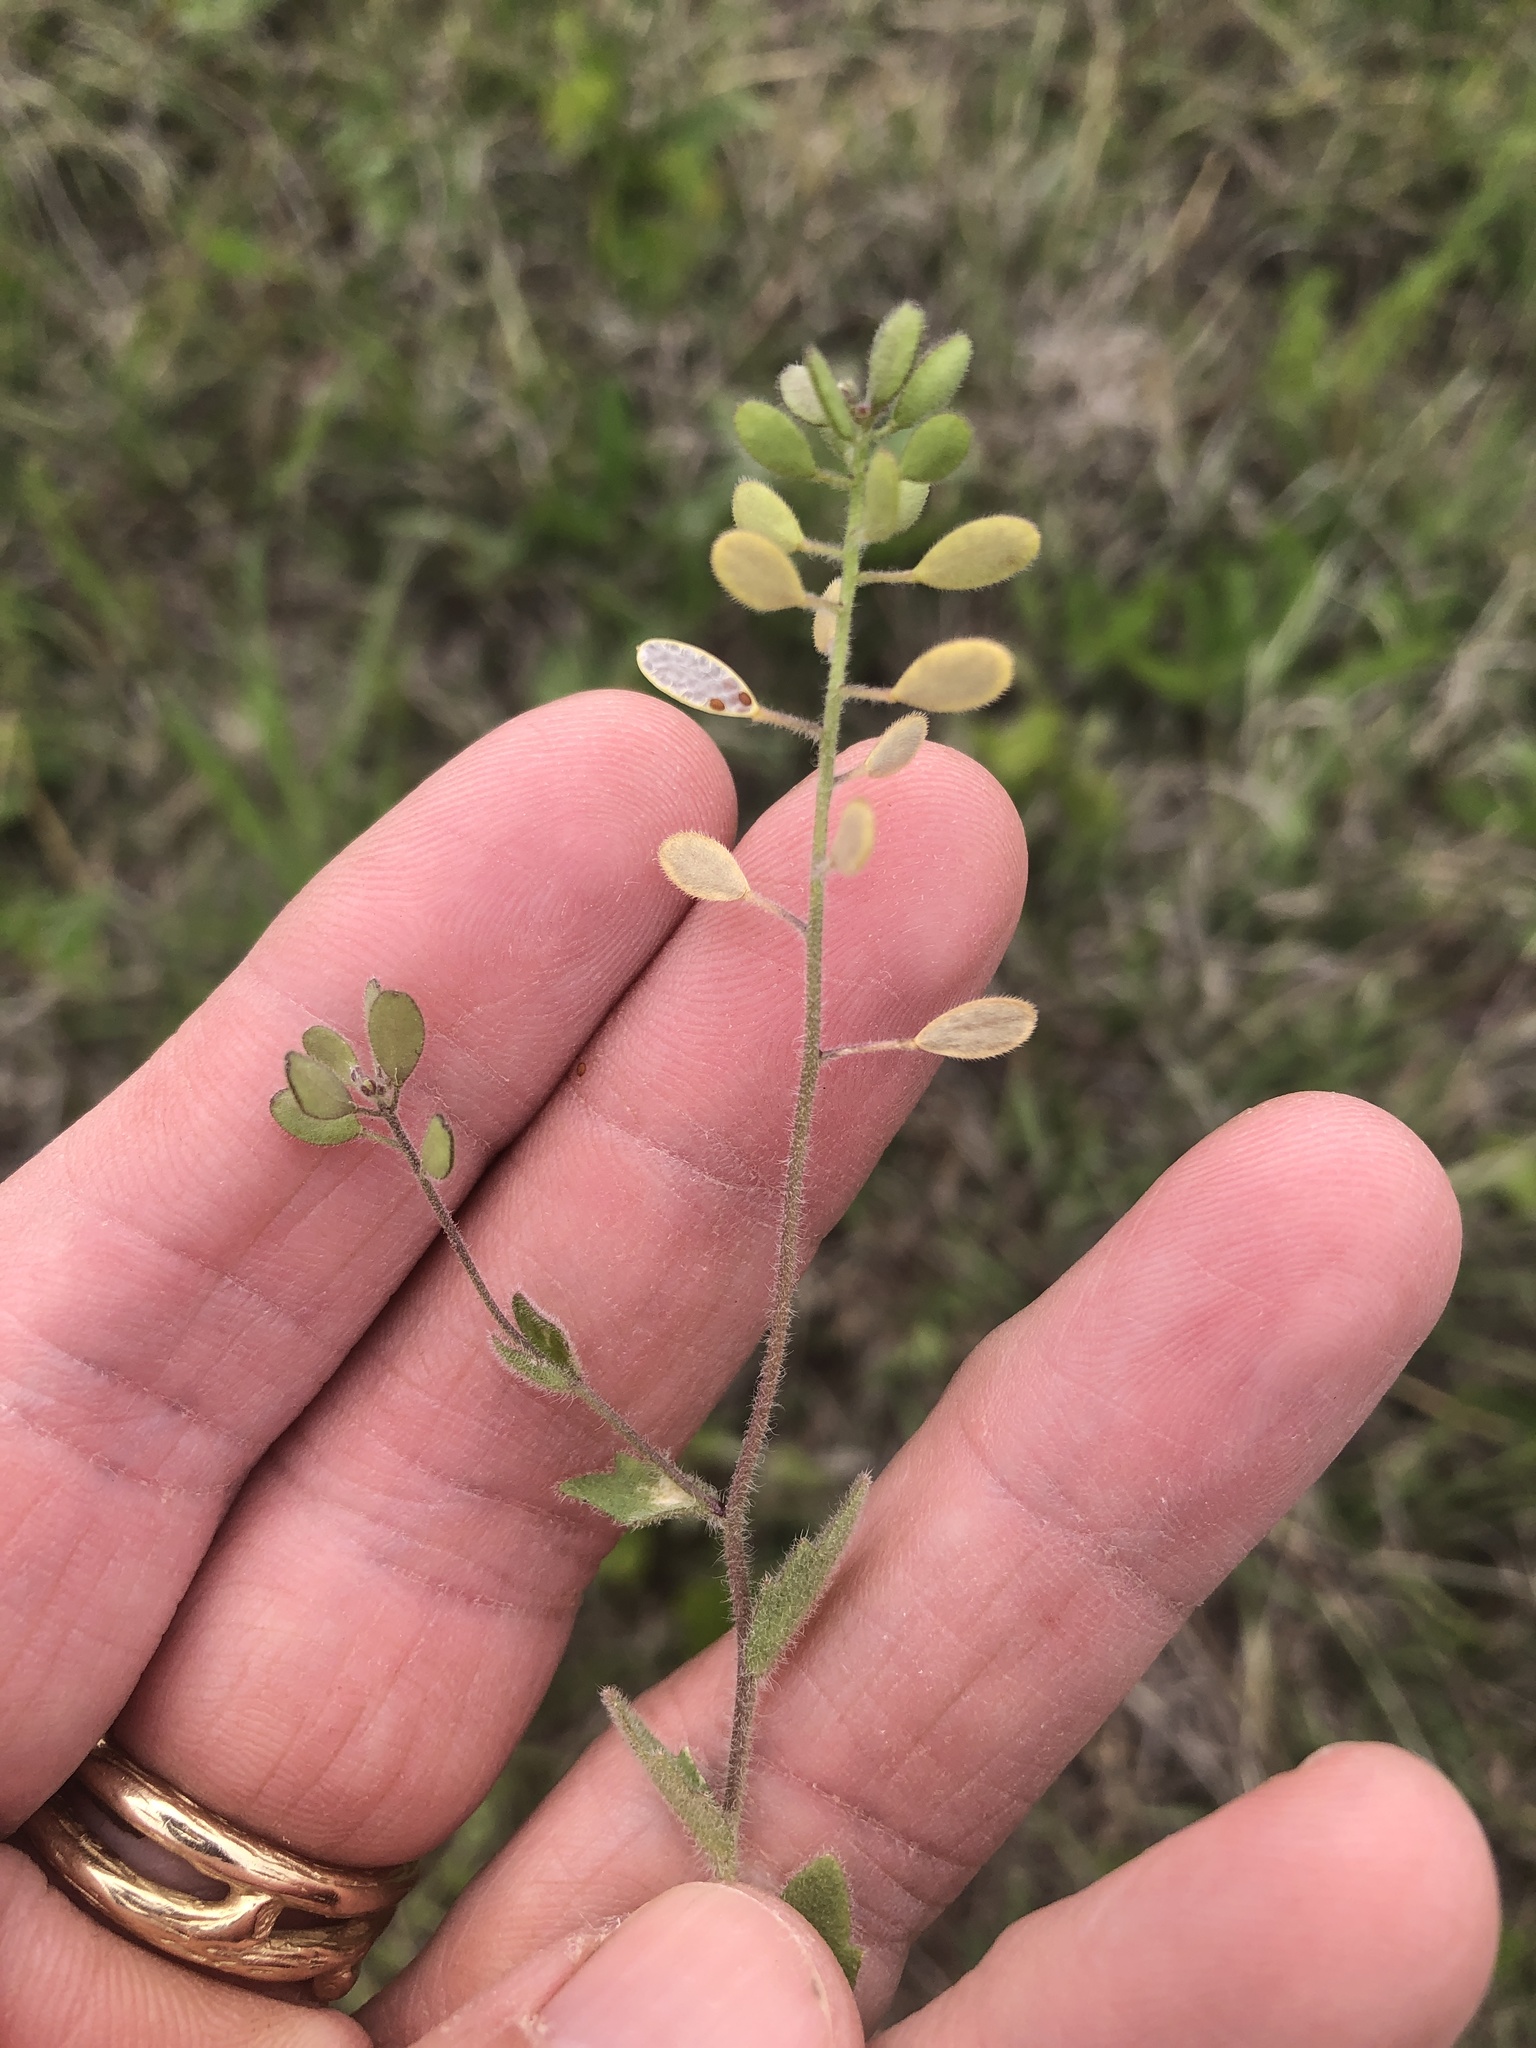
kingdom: Plantae
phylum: Tracheophyta
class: Magnoliopsida
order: Brassicales
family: Brassicaceae
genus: Tomostima
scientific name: Tomostima platycarpa
